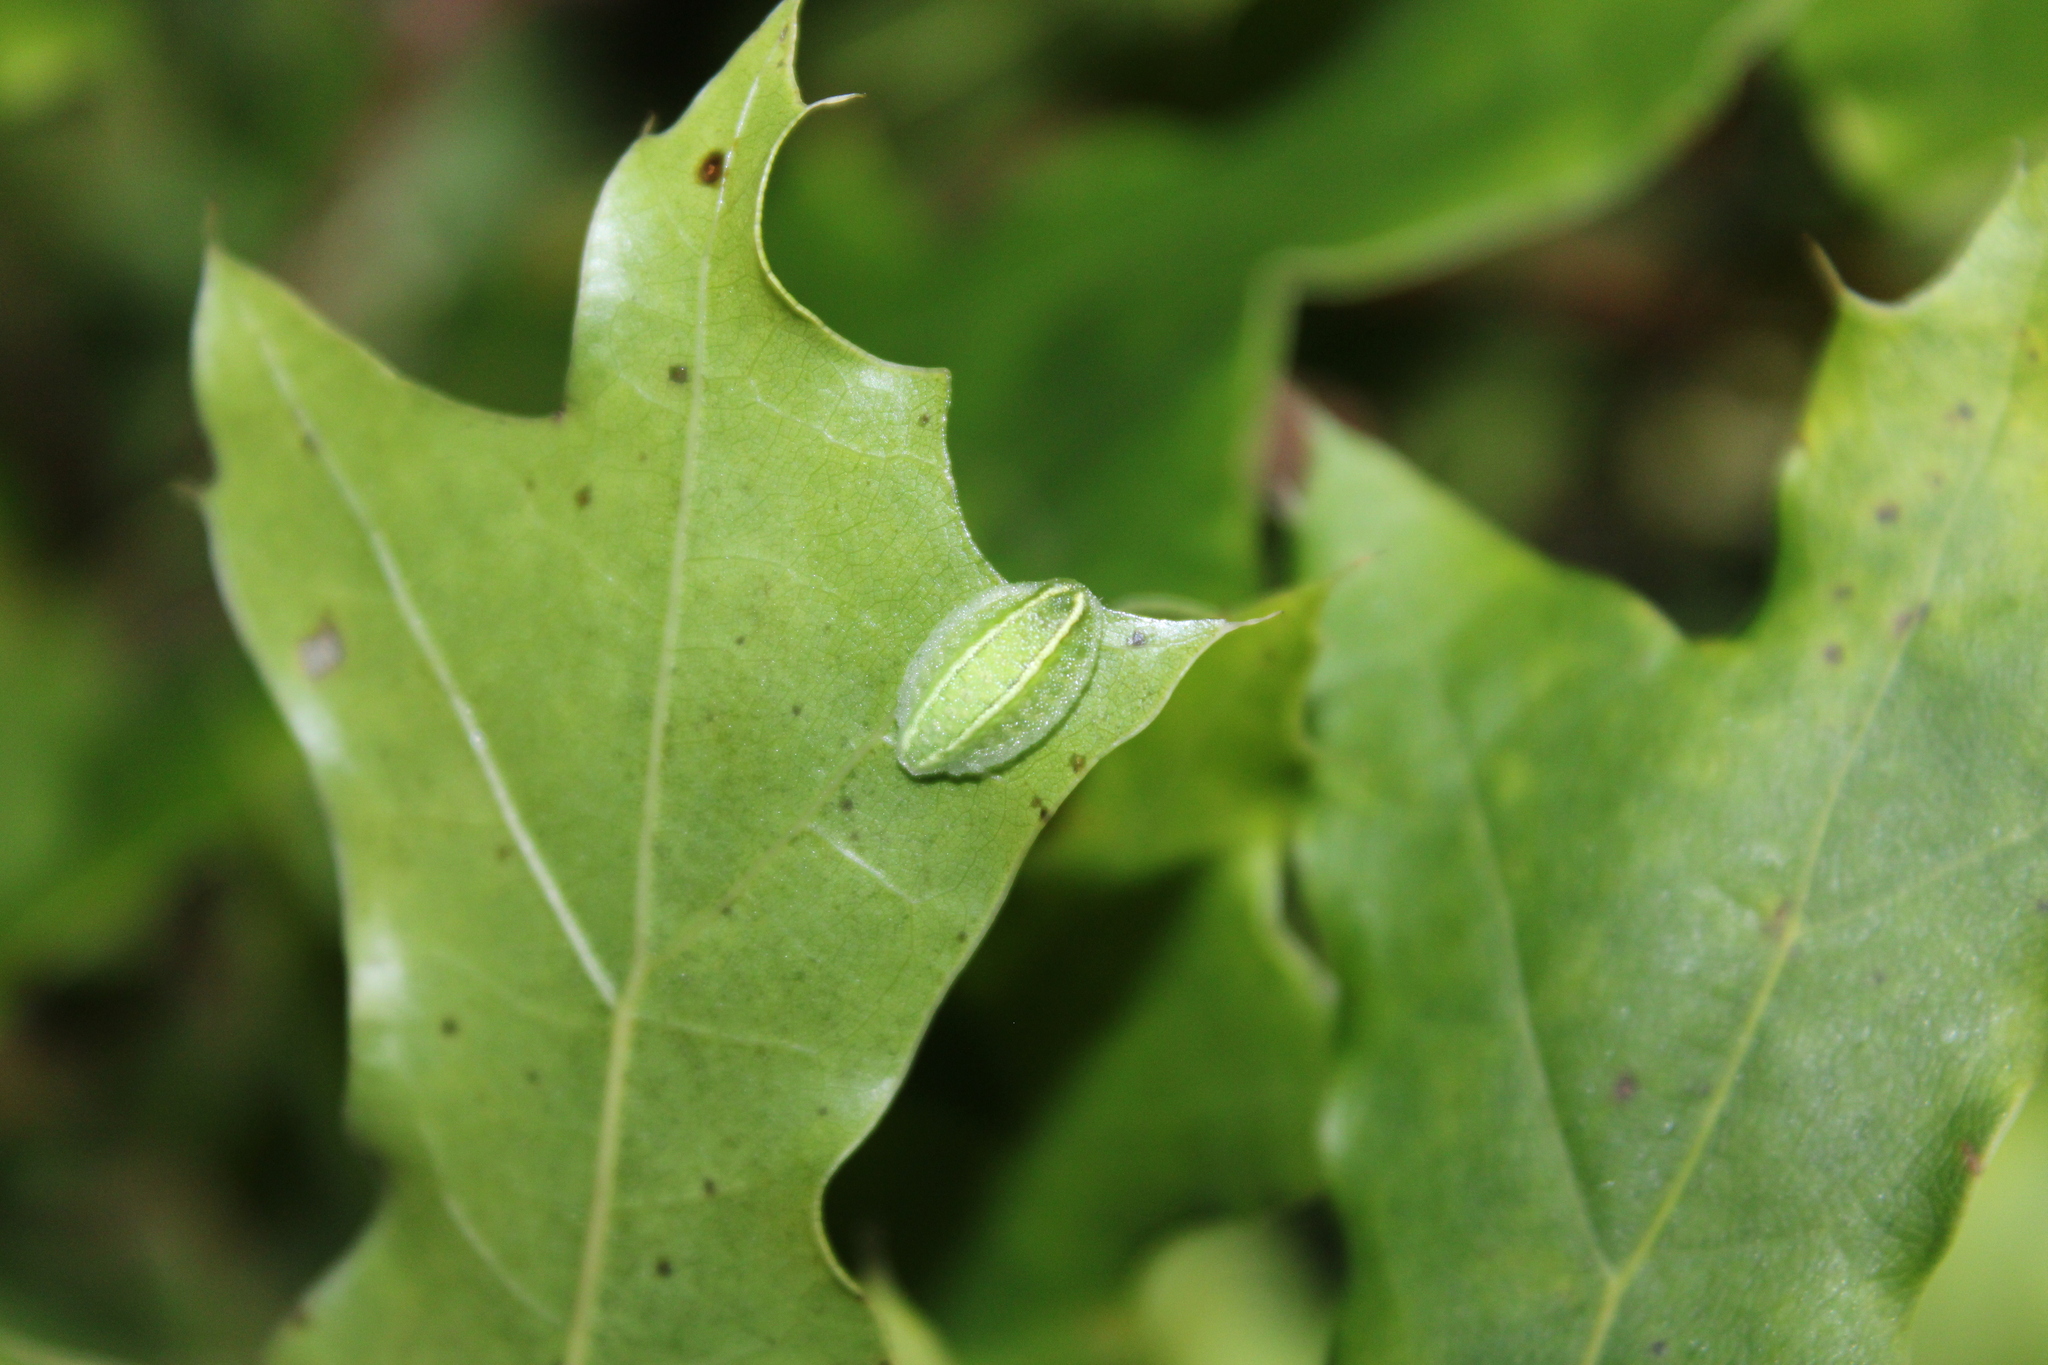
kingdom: Animalia
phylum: Arthropoda
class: Insecta
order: Lepidoptera
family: Limacodidae
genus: Apoda
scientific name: Apoda biguttata
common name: Shagreened slug moth
